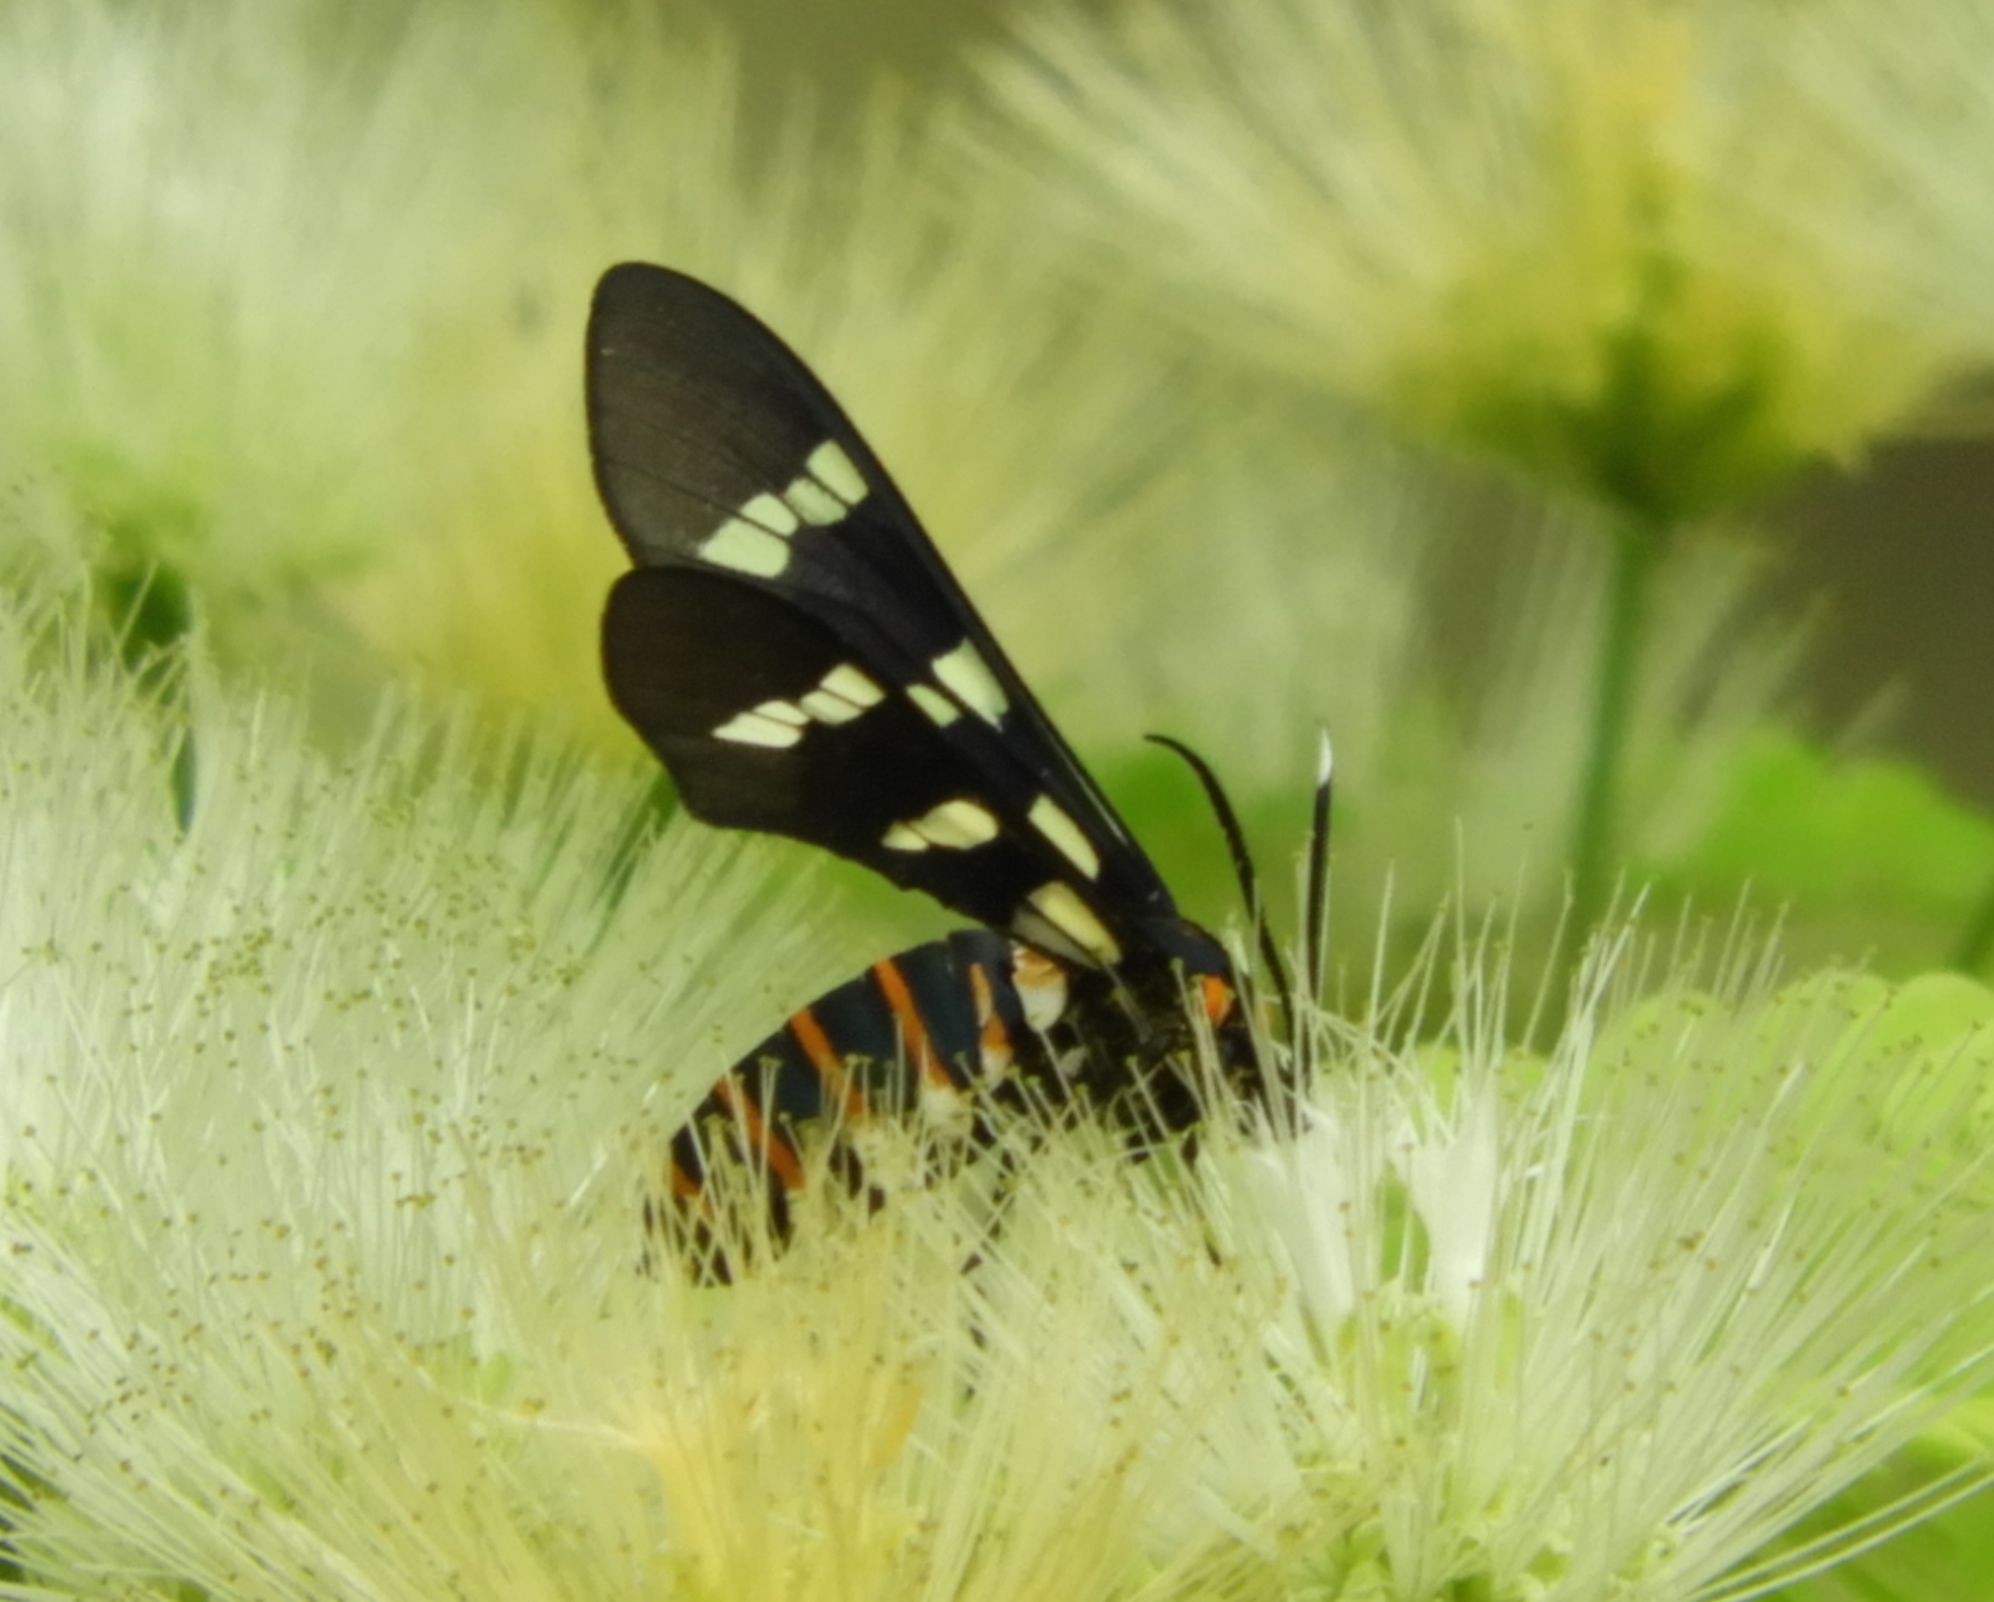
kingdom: Animalia
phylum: Arthropoda
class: Insecta
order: Lepidoptera
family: Erebidae
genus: Syntomeida
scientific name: Syntomeida melanthus
